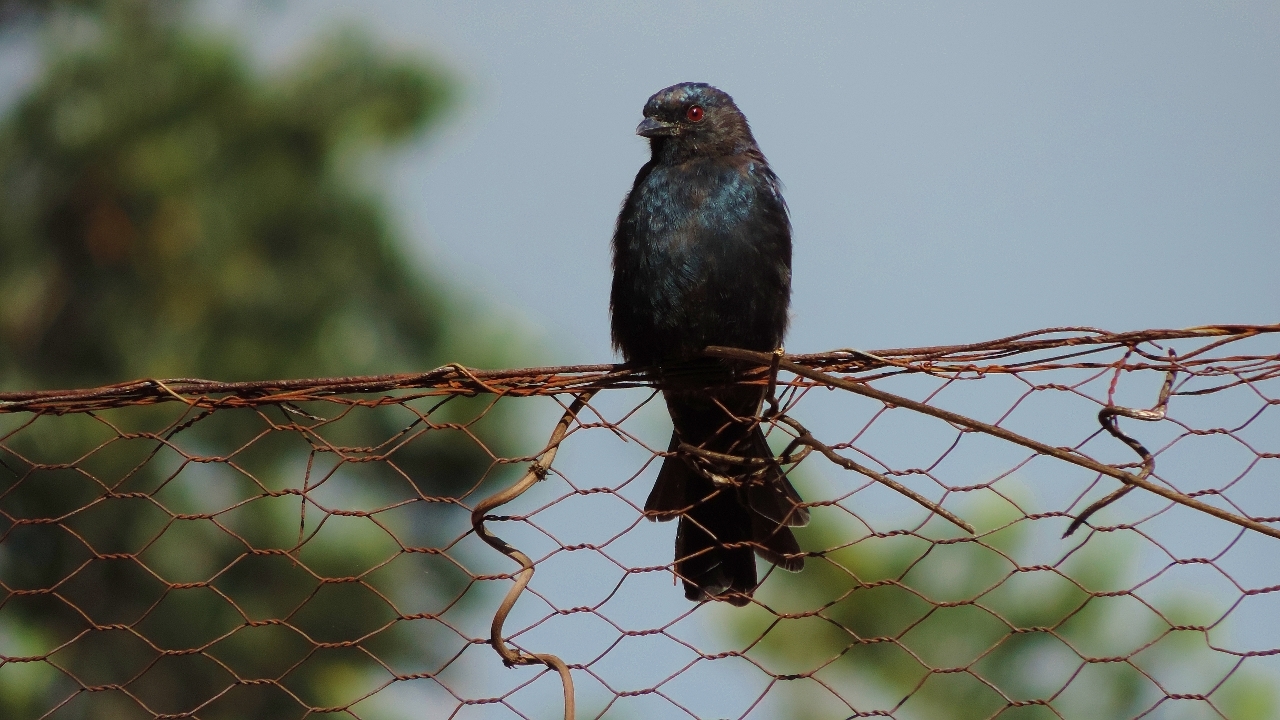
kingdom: Animalia
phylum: Chordata
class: Aves
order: Passeriformes
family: Dicruridae
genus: Dicrurus
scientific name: Dicrurus adsimilis
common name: Fork-tailed drongo
